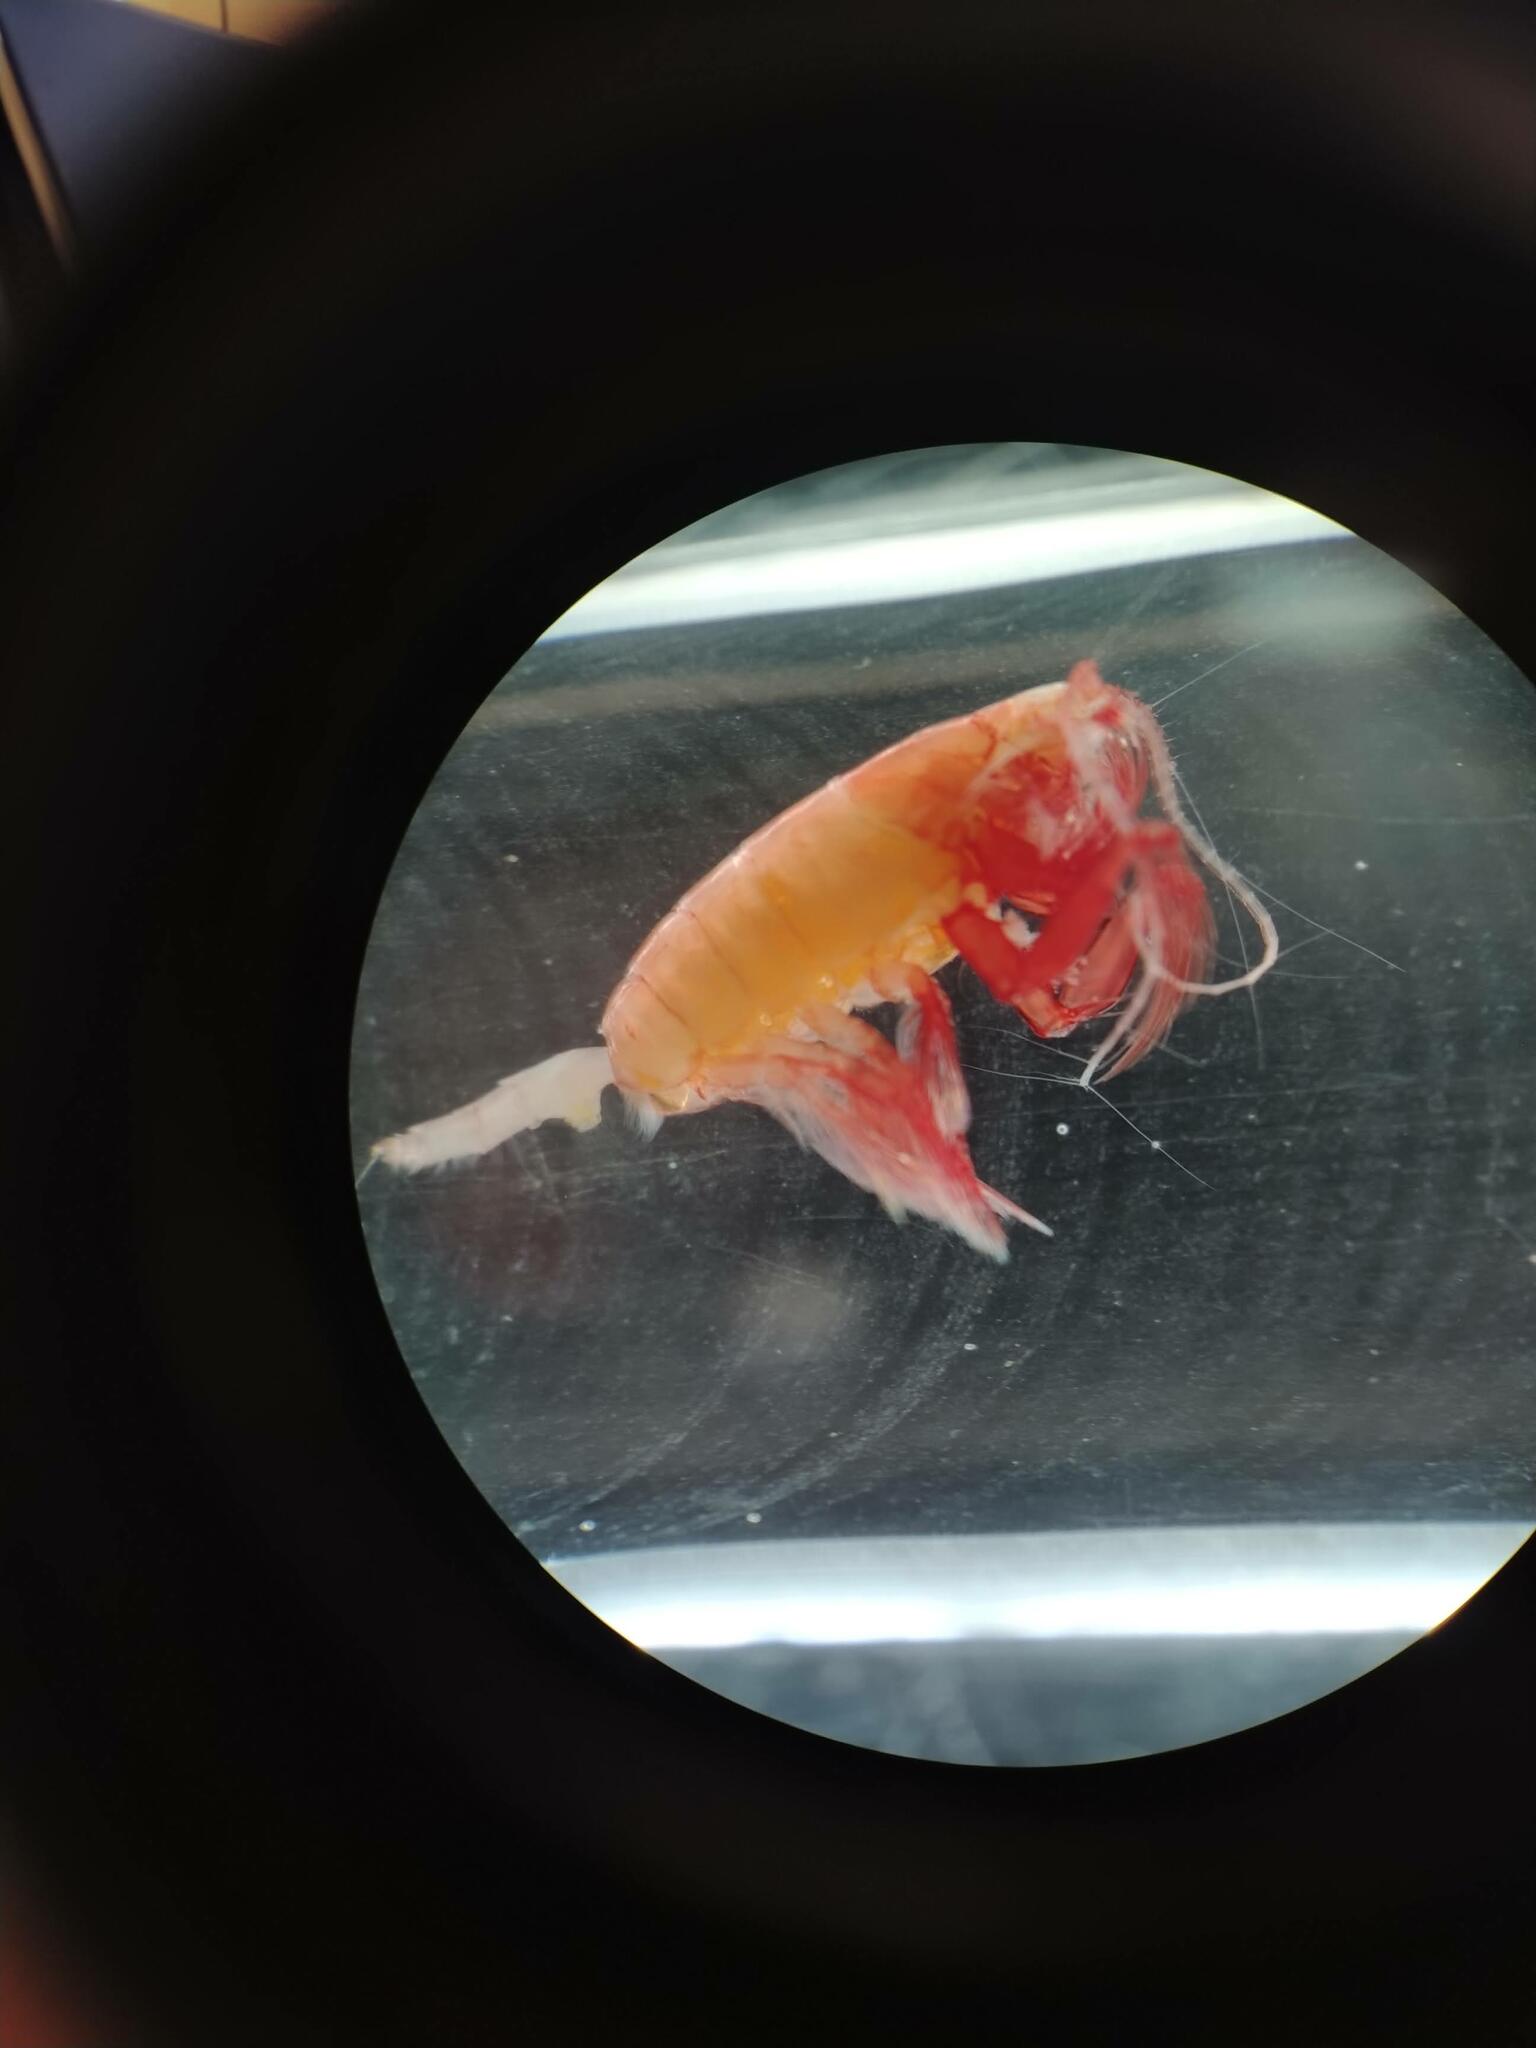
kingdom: Animalia
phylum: Arthropoda
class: Copepoda
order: Calanoida
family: Euchaetidae
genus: Paraeuchaeta
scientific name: Paraeuchaeta barbata
